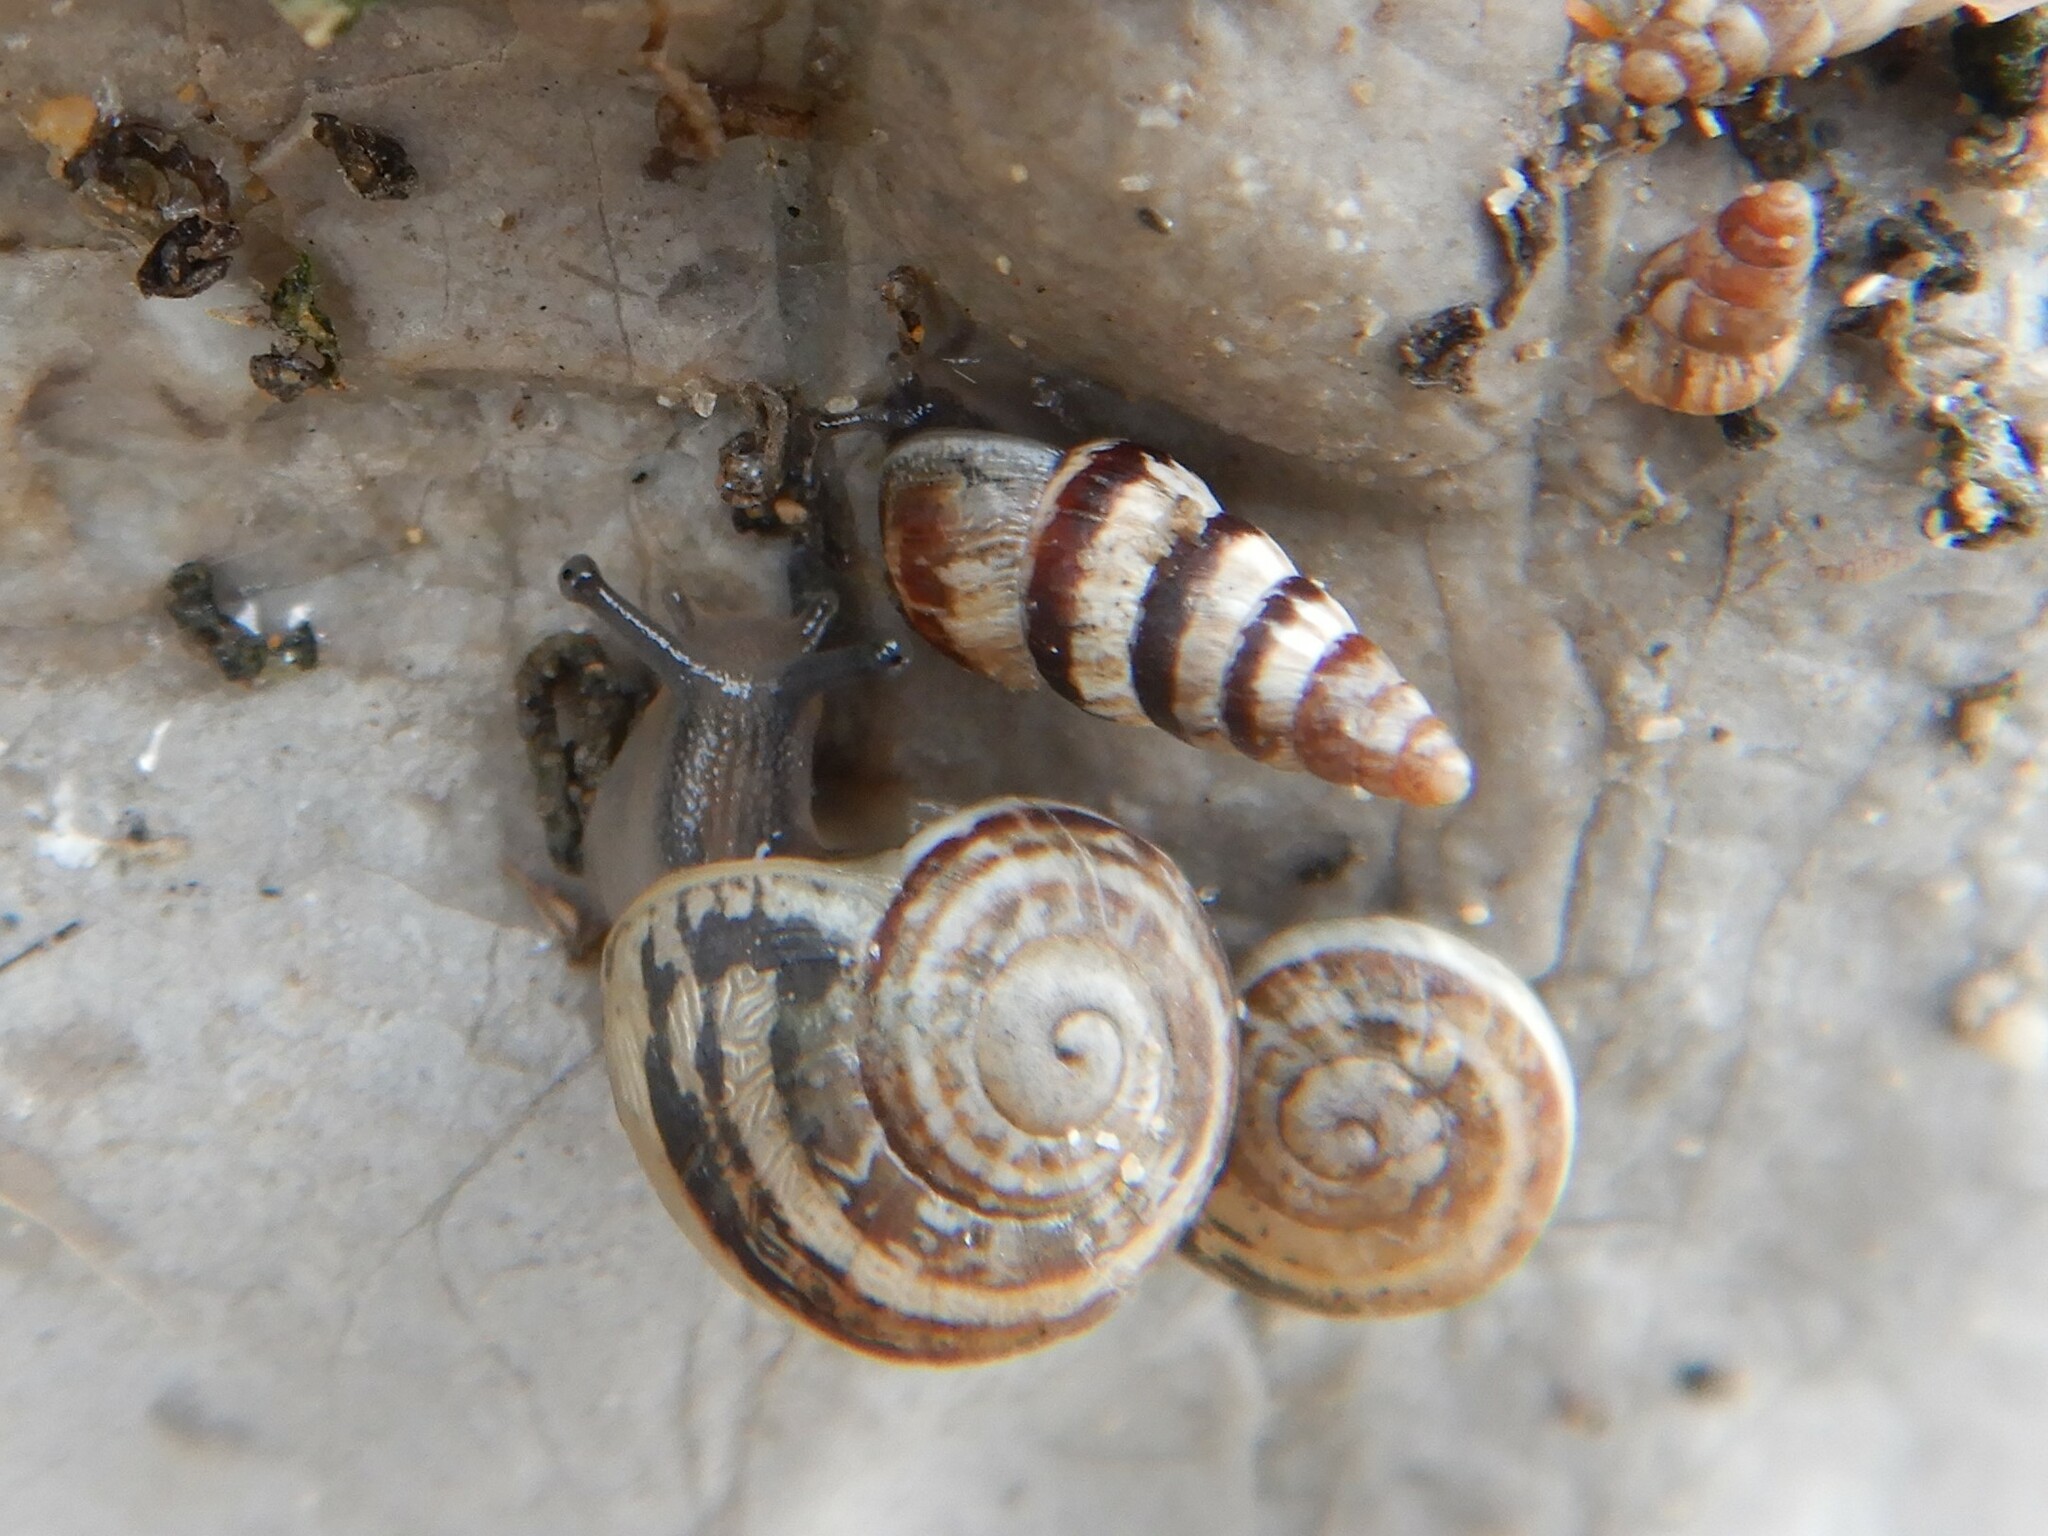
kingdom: Animalia
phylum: Mollusca
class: Gastropoda
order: Stylommatophora
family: Helicidae
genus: Eobania
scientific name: Eobania vermiculata
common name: Chocolateband snail
